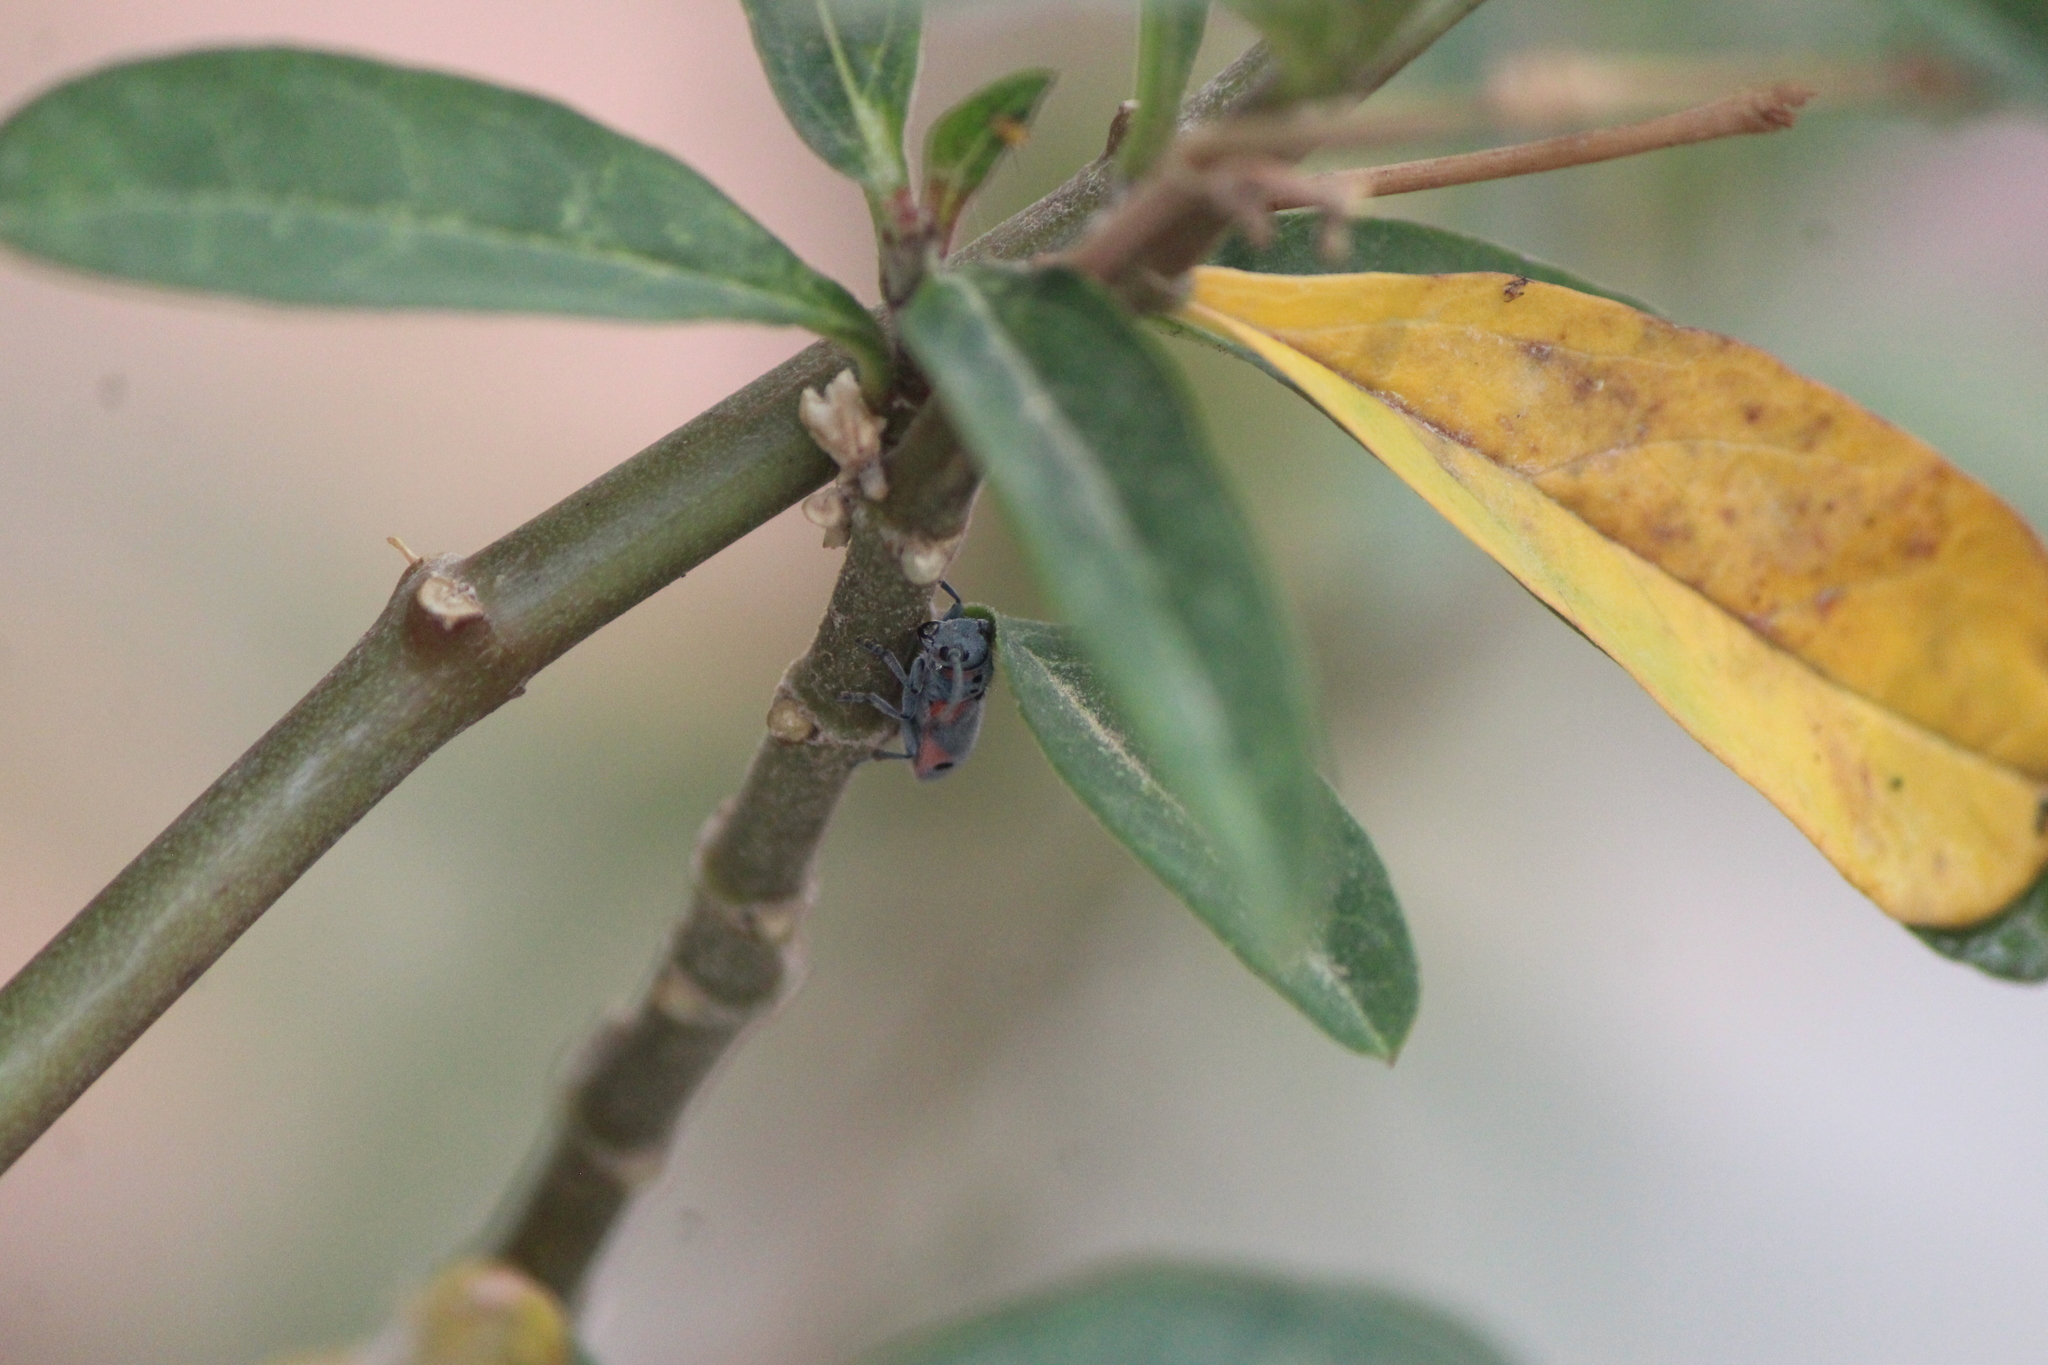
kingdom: Animalia
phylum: Arthropoda
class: Insecta
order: Coleoptera
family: Cerambycidae
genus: Tetraopes
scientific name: Tetraopes batesi
